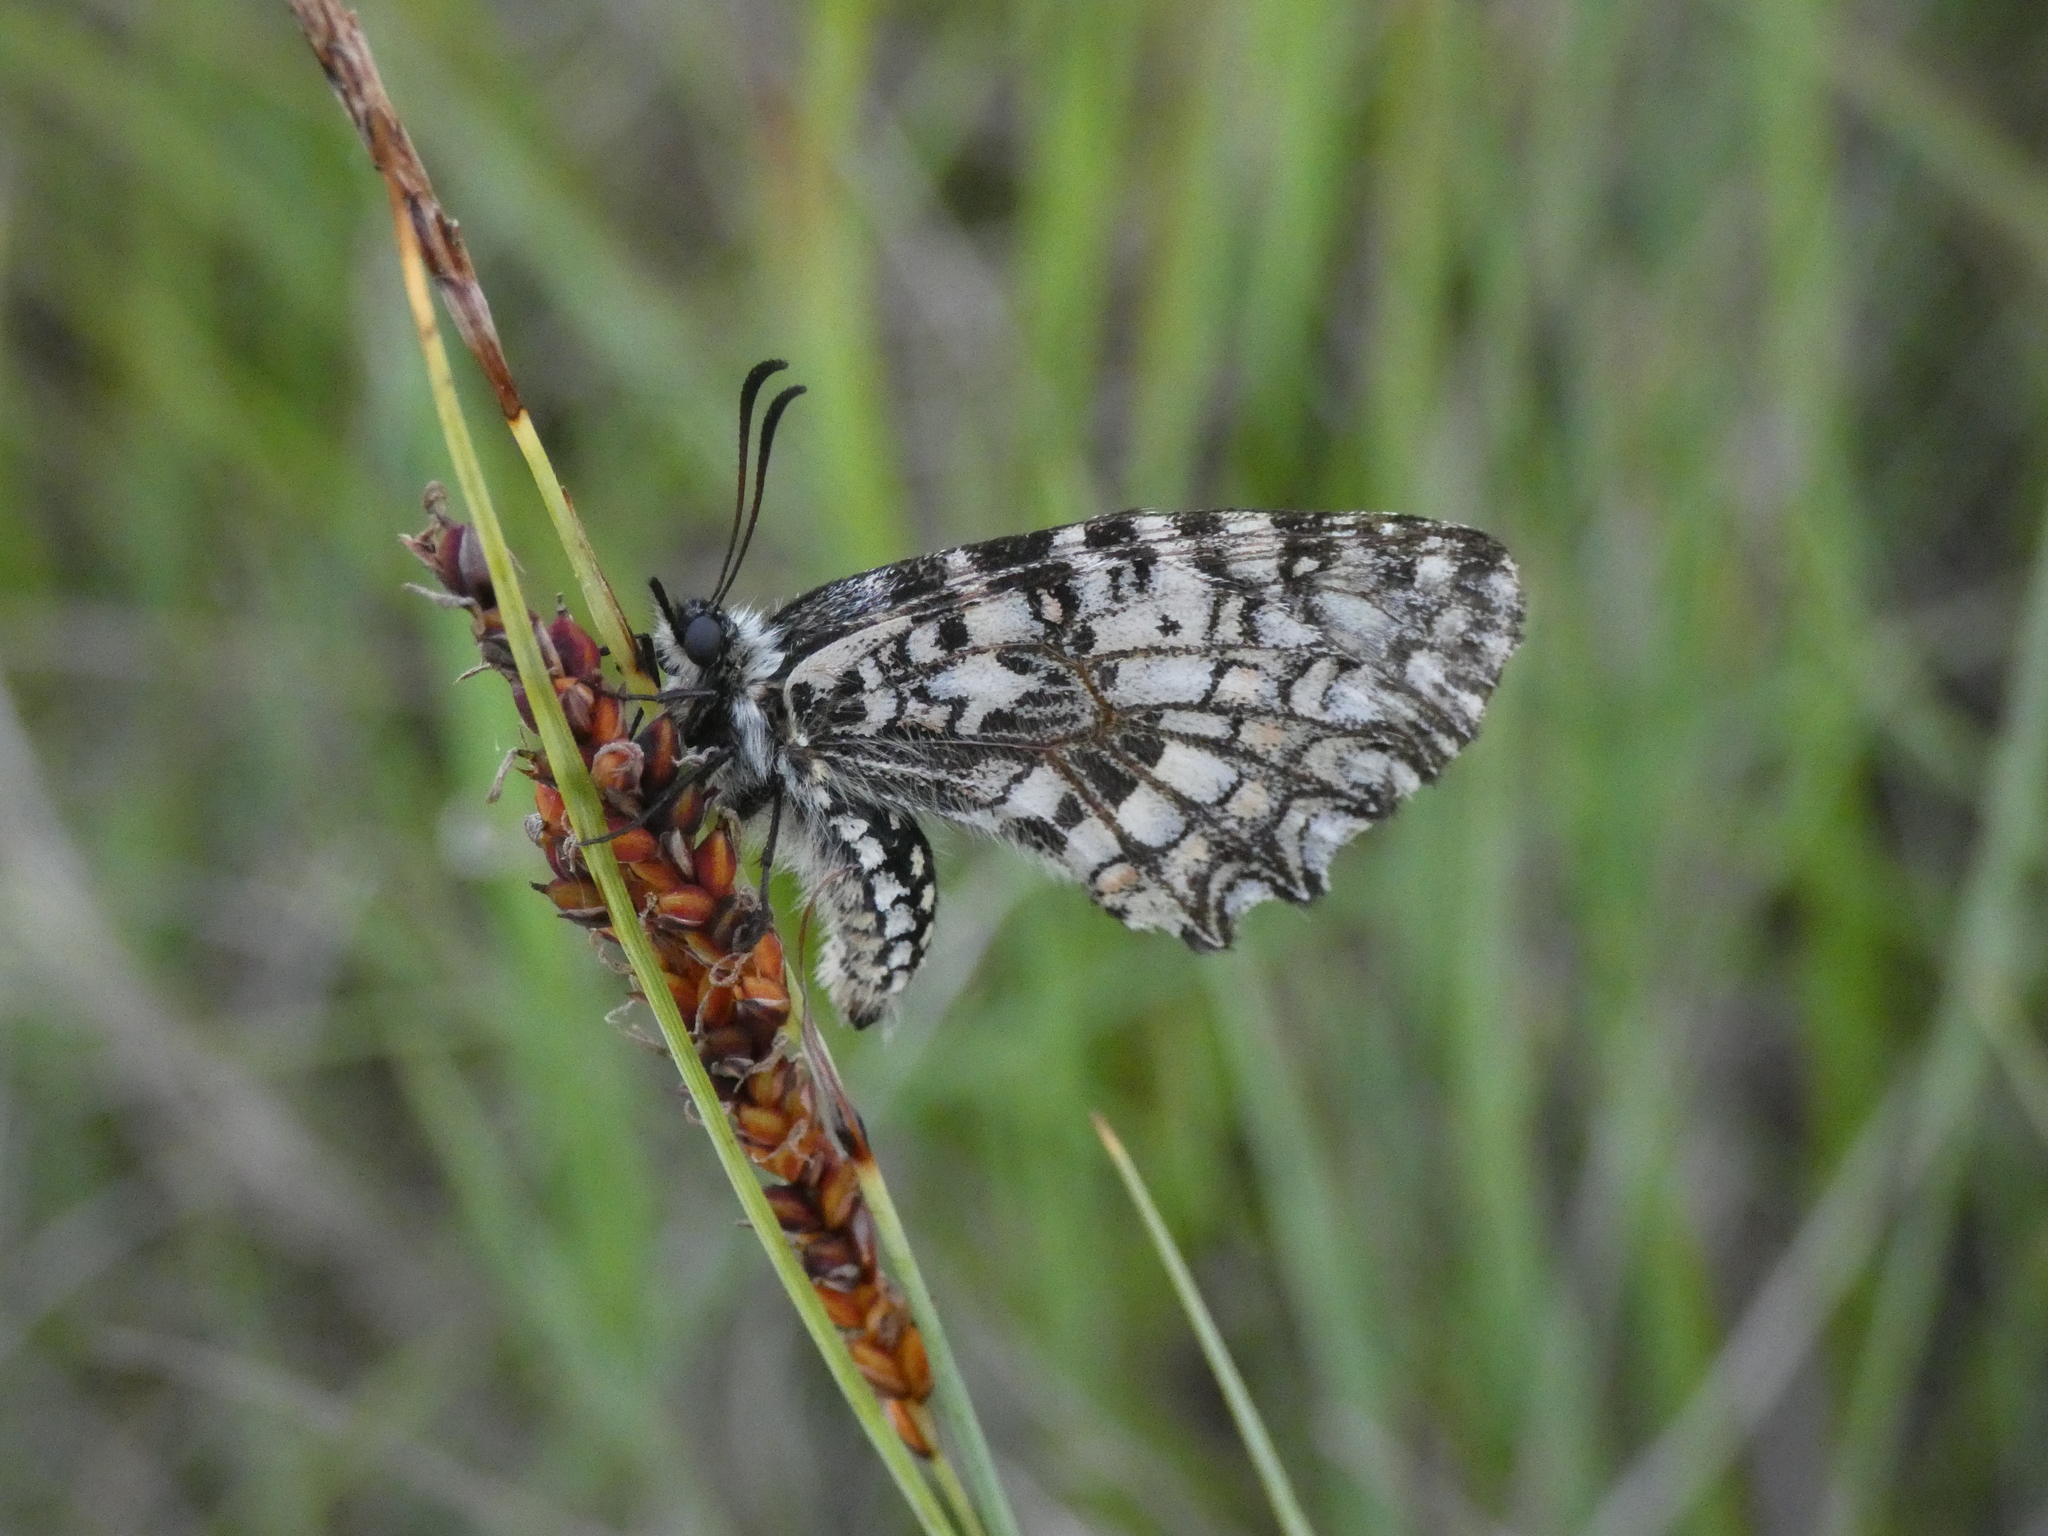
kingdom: Animalia
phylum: Arthropoda
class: Insecta
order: Lepidoptera
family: Papilionidae
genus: Zerynthia
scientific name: Zerynthia rumina
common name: Spanish festoon
